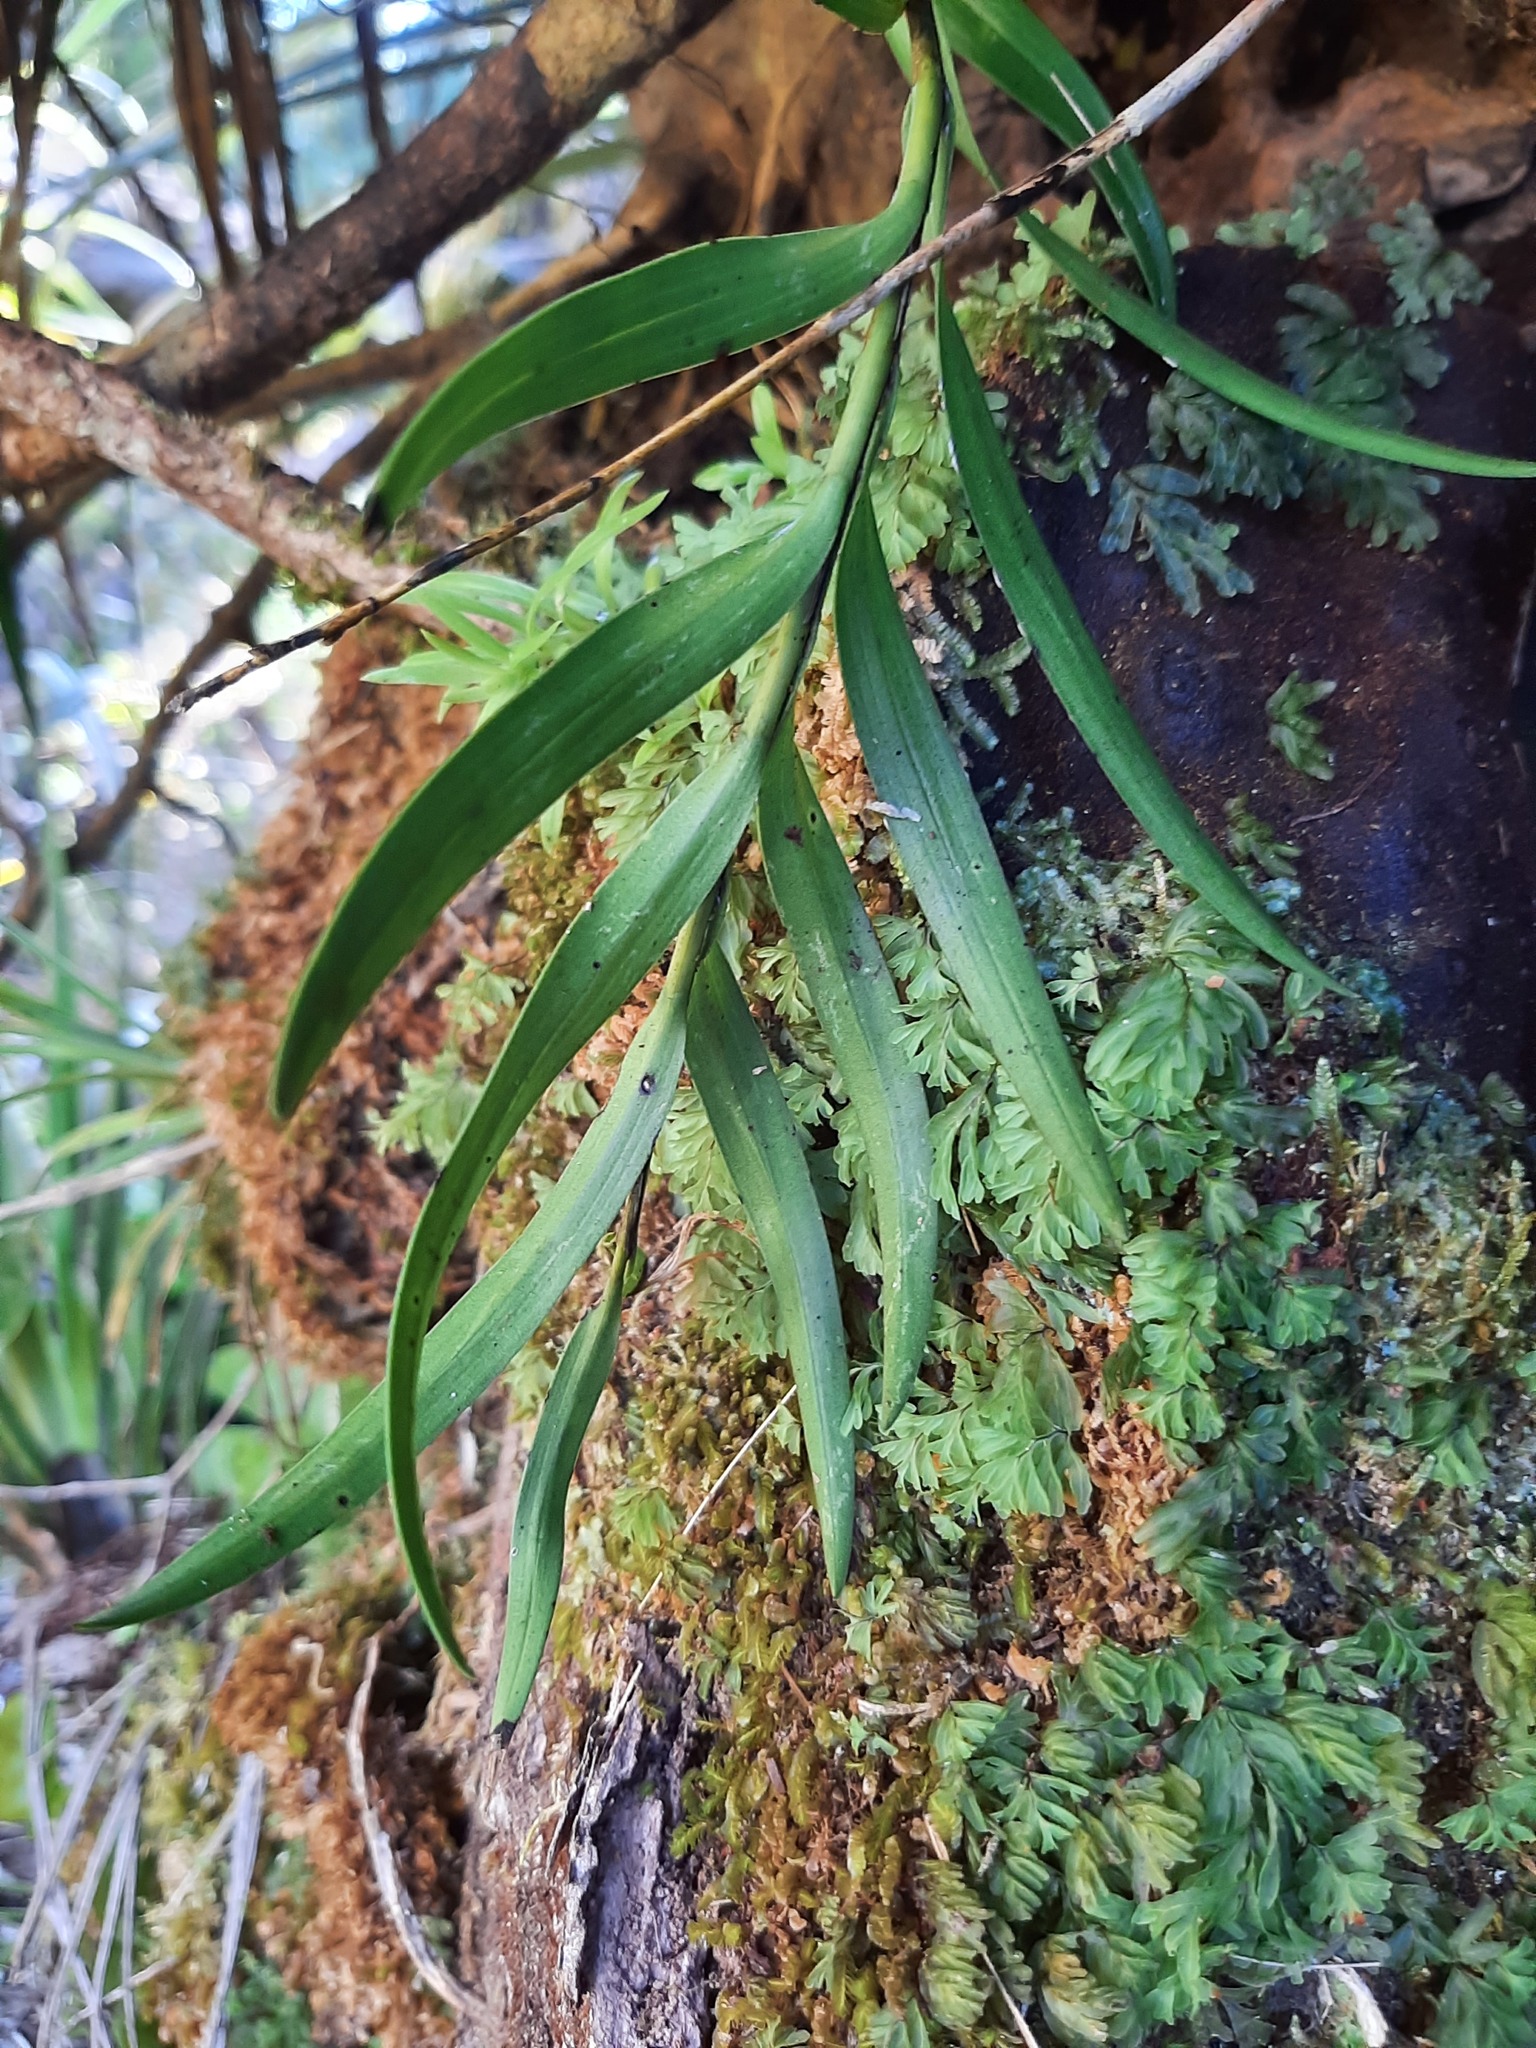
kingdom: Plantae
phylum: Tracheophyta
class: Liliopsida
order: Asparagales
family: Orchidaceae
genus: Earina
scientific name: Earina autumnalis
